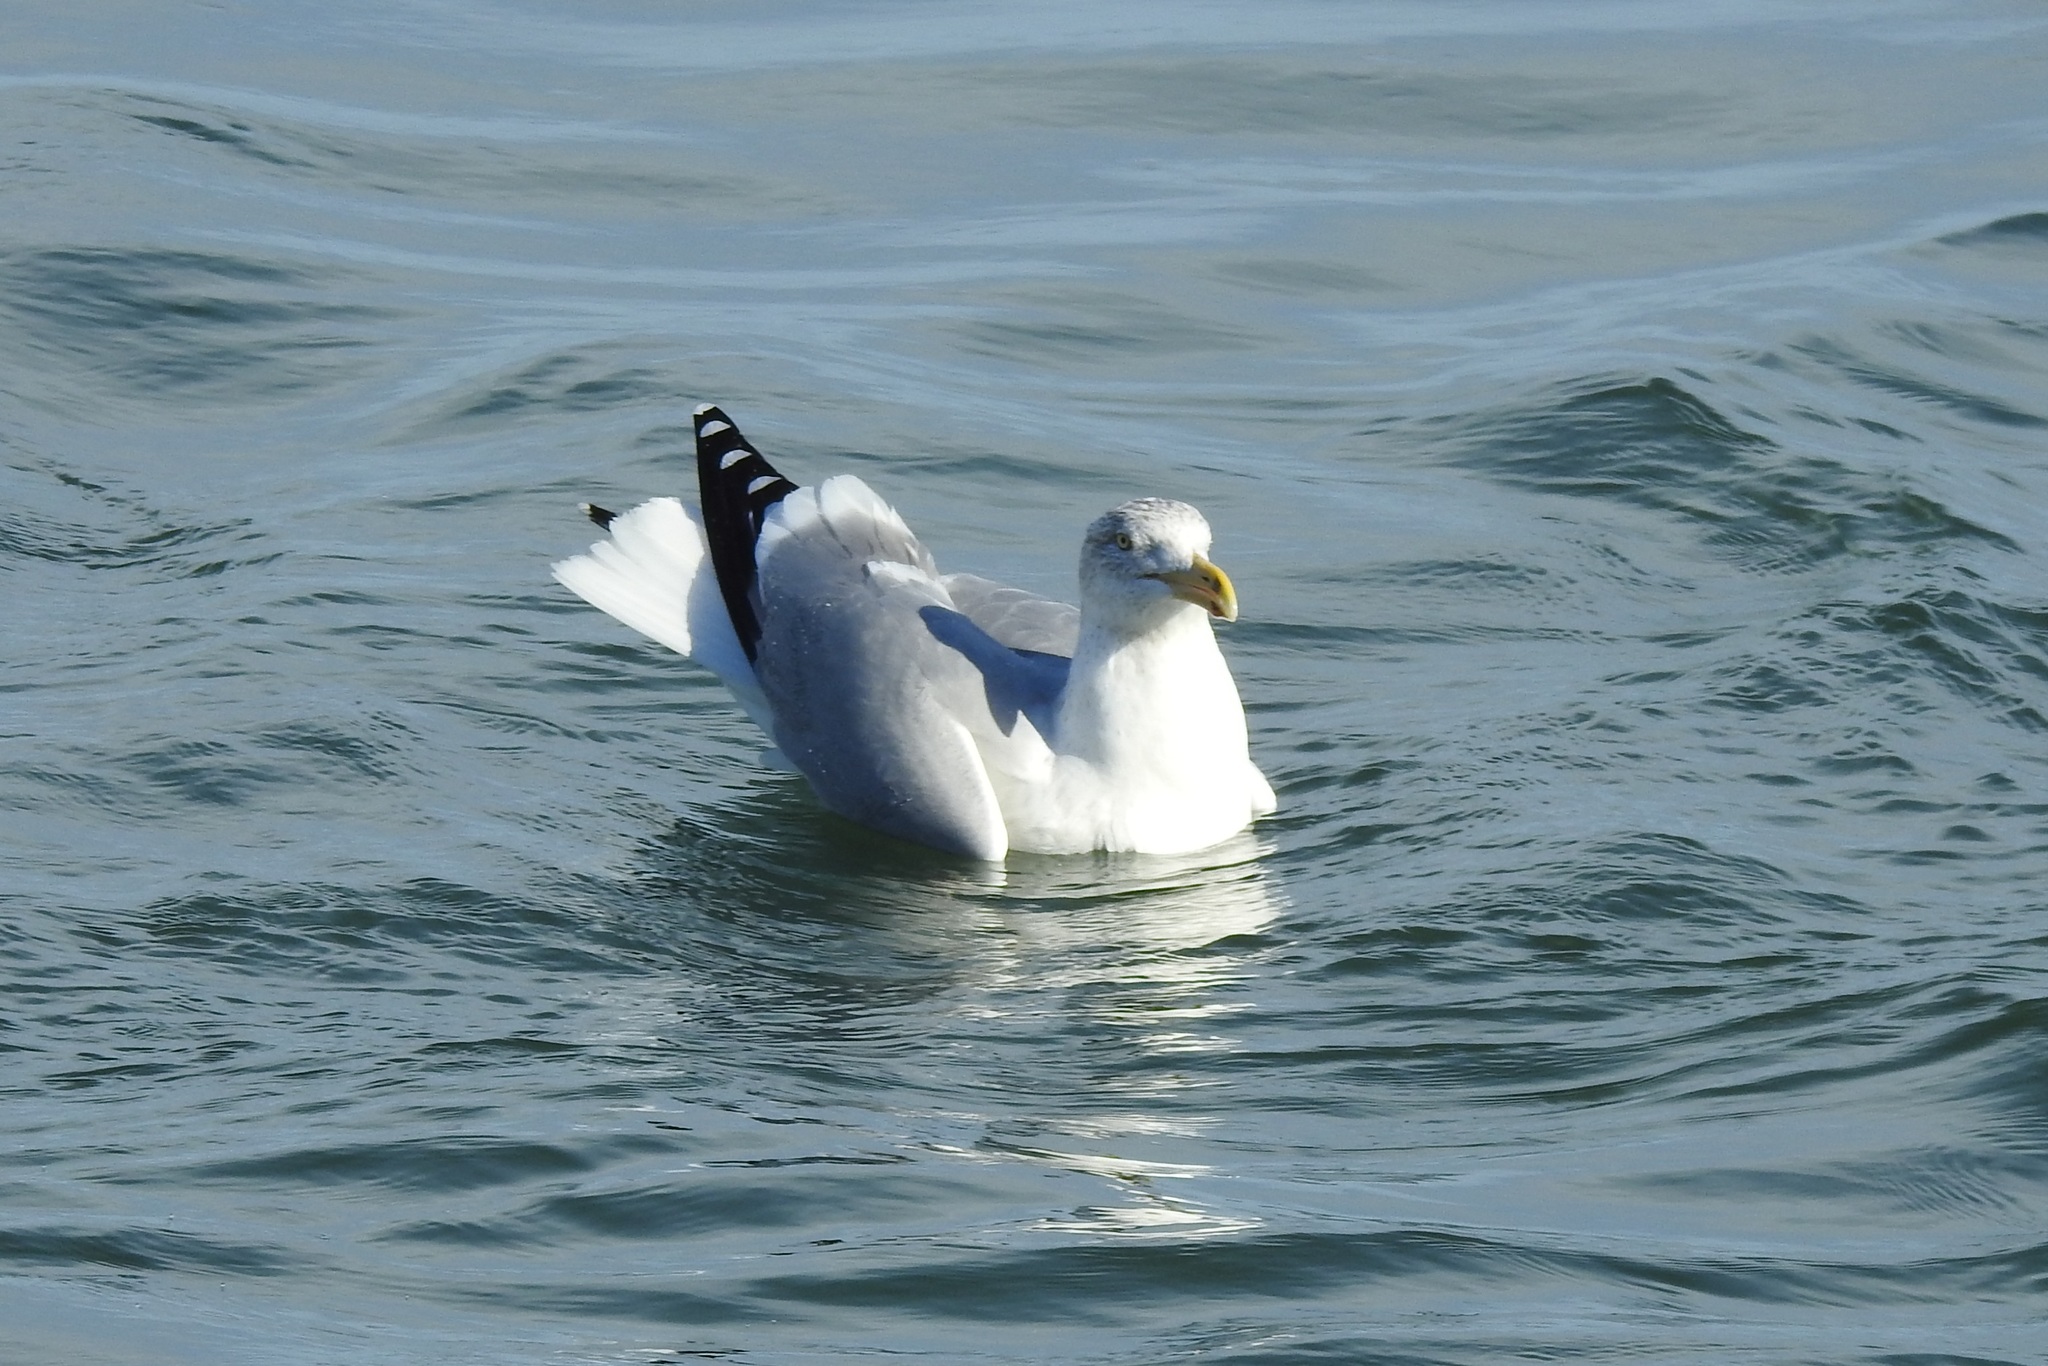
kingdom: Animalia
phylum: Chordata
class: Aves
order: Charadriiformes
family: Laridae
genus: Larus
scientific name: Larus argentatus
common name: Herring gull
